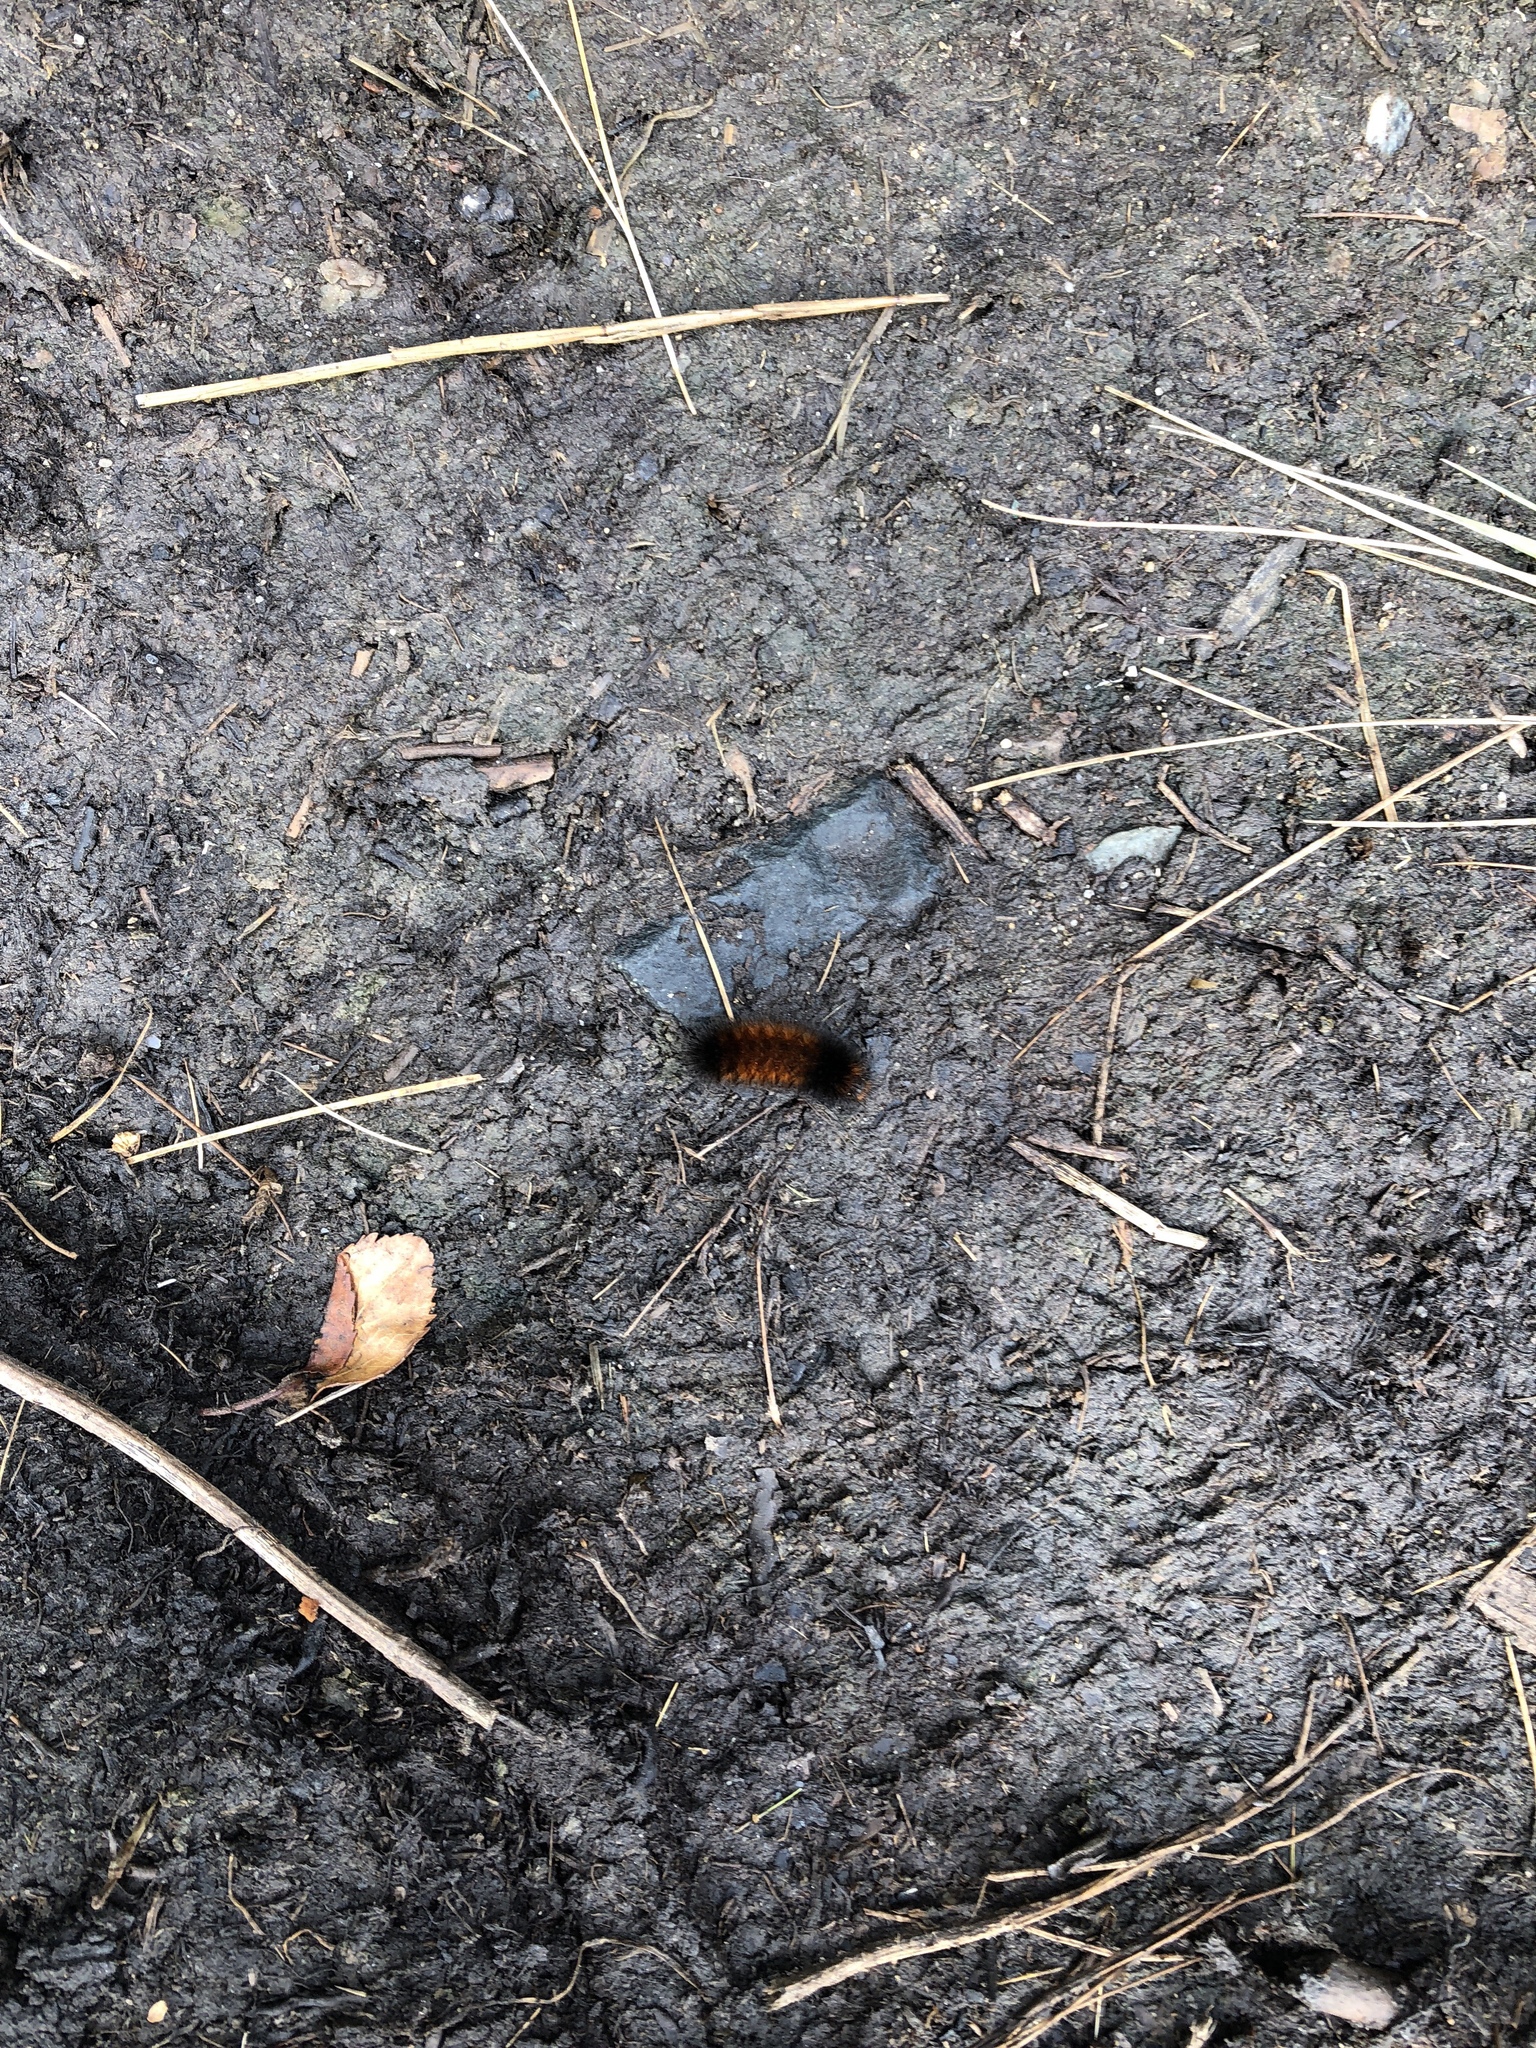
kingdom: Animalia
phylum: Arthropoda
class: Insecta
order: Lepidoptera
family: Erebidae
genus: Pyrrharctia
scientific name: Pyrrharctia isabella
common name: Isabella tiger moth
